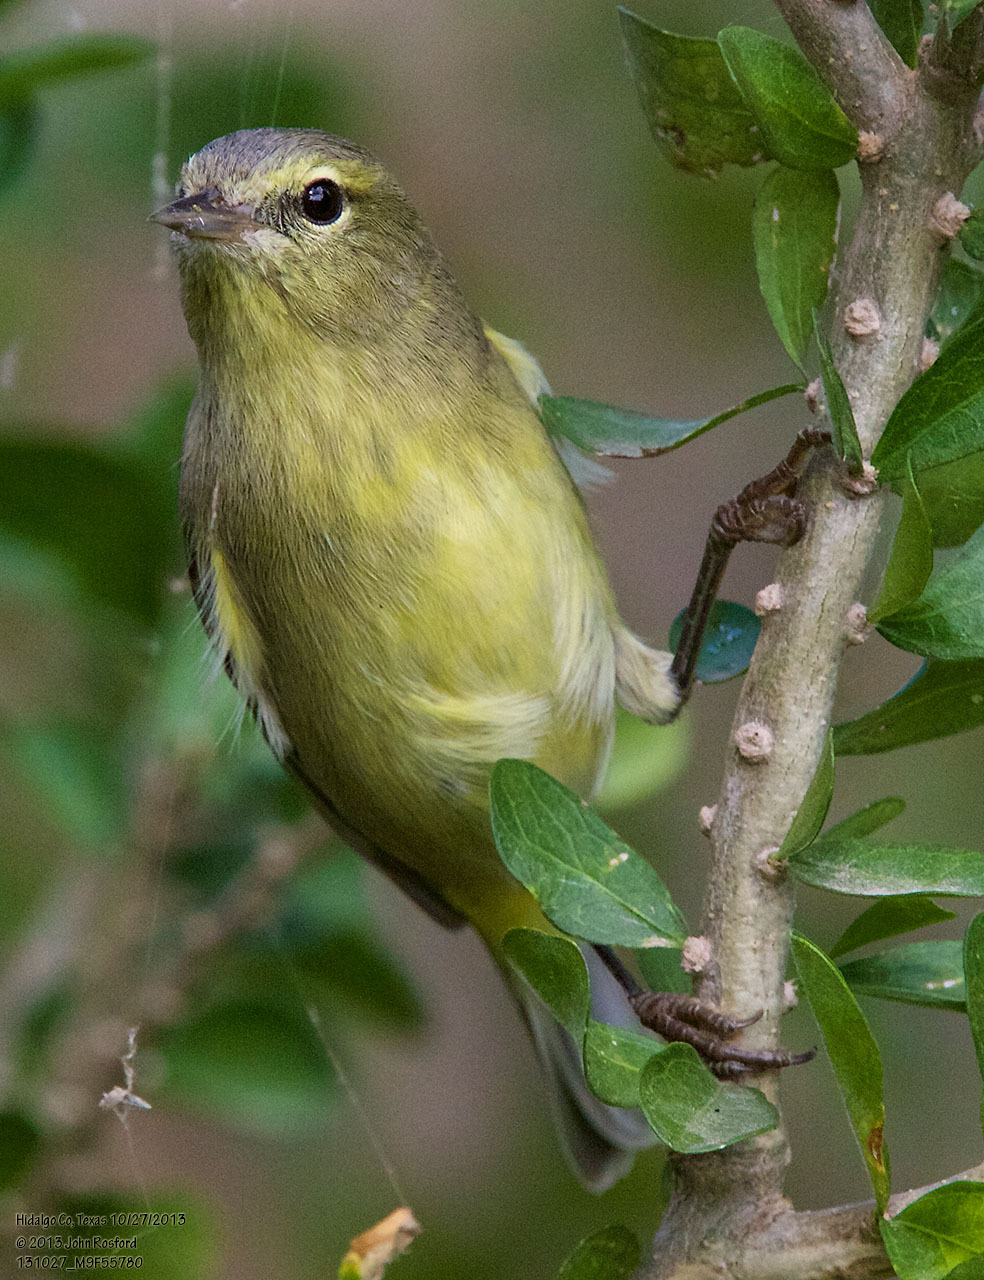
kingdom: Animalia
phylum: Chordata
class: Aves
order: Passeriformes
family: Parulidae
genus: Leiothlypis
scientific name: Leiothlypis celata
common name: Orange-crowned warbler
